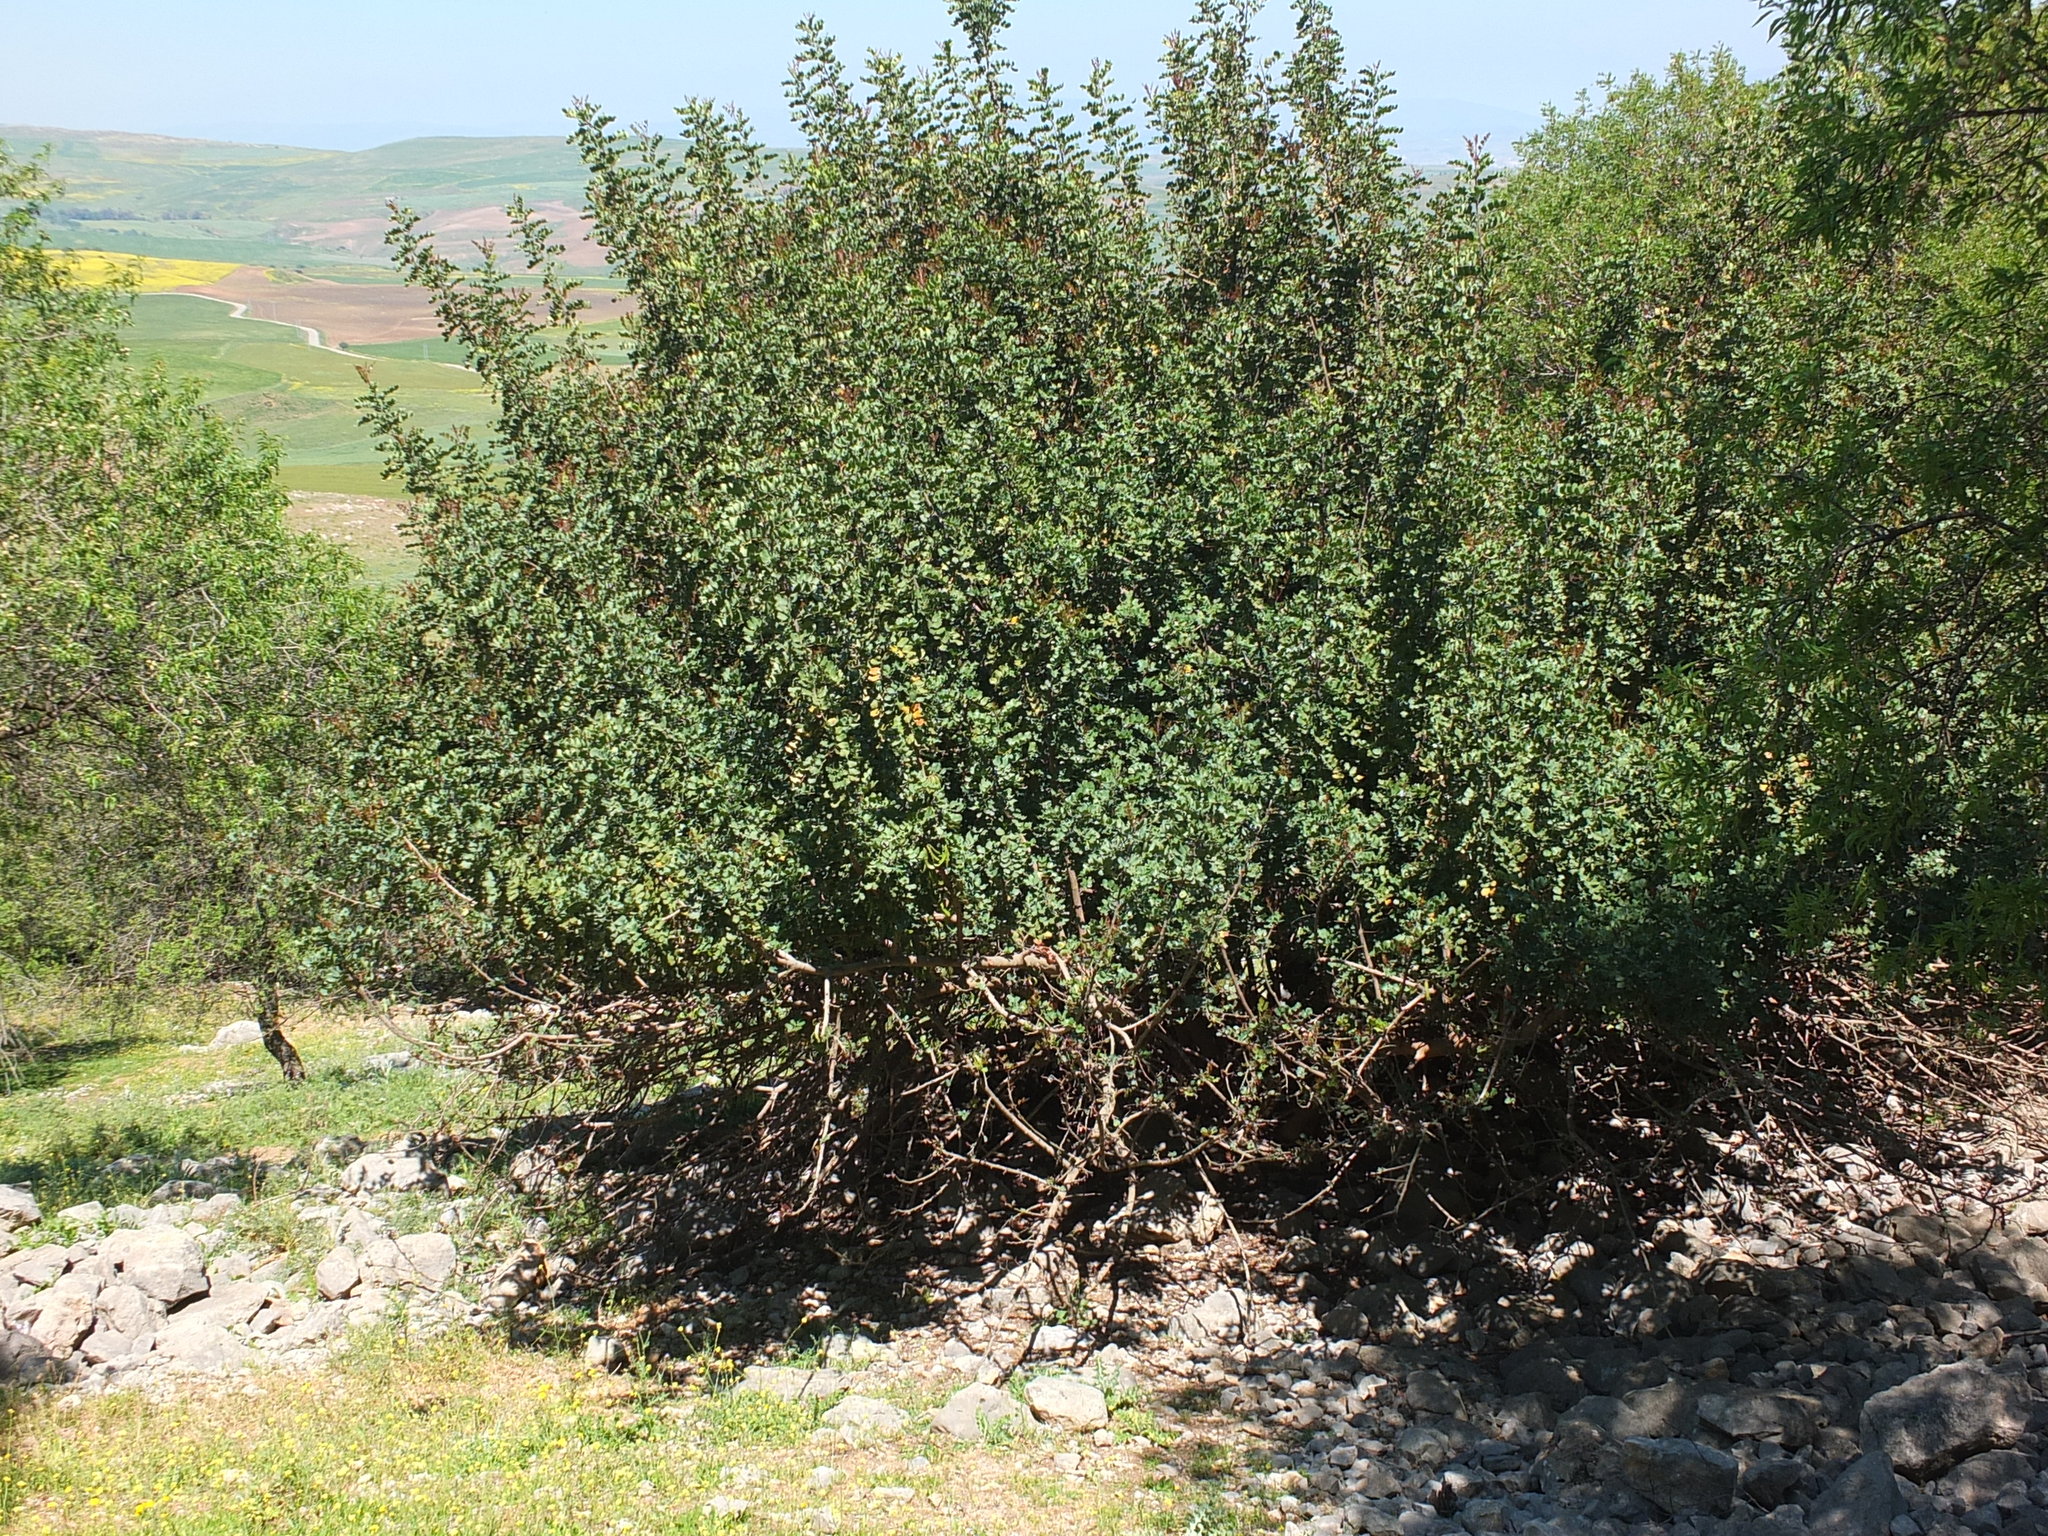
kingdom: Plantae
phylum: Tracheophyta
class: Magnoliopsida
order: Fabales
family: Fabaceae
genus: Ceratonia
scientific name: Ceratonia siliqua
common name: Carob
